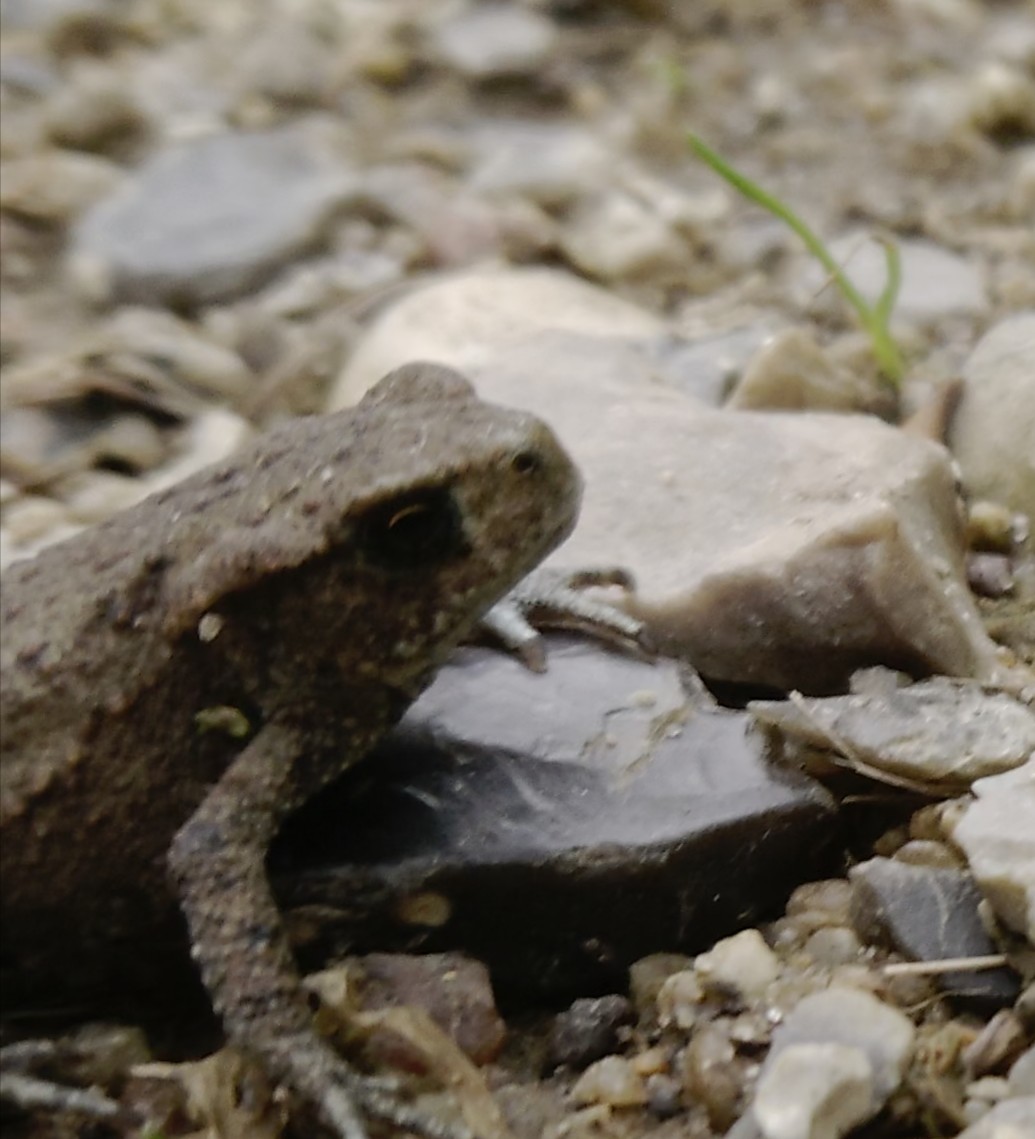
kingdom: Animalia
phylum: Chordata
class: Amphibia
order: Anura
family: Bufonidae
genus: Bufo
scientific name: Bufo bufo
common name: Common toad
